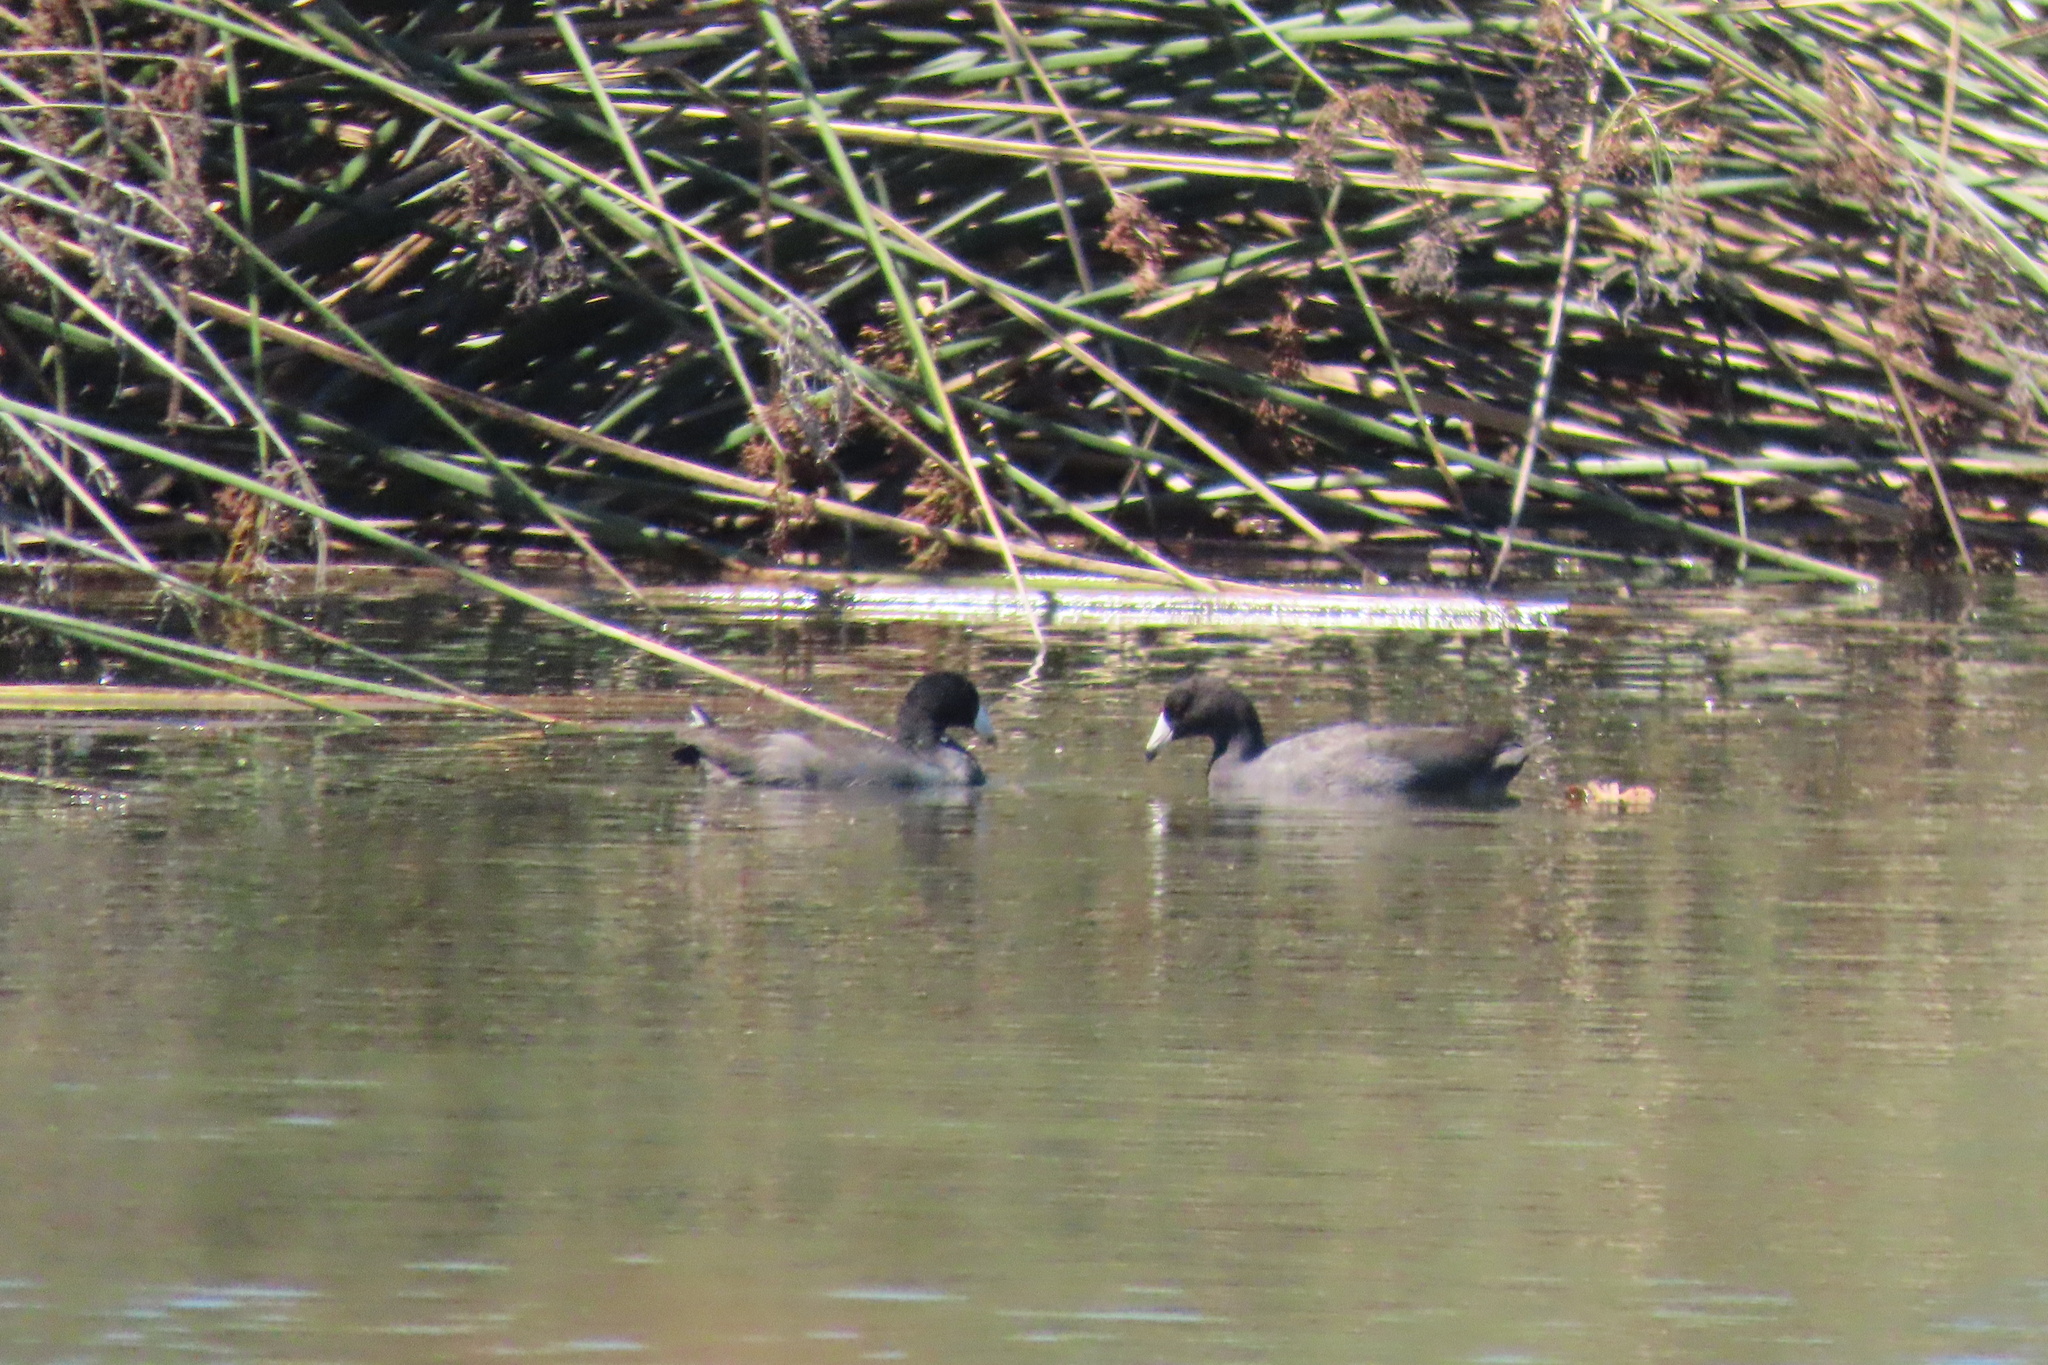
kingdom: Animalia
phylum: Chordata
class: Aves
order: Gruiformes
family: Rallidae
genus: Fulica
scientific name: Fulica americana
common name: American coot
